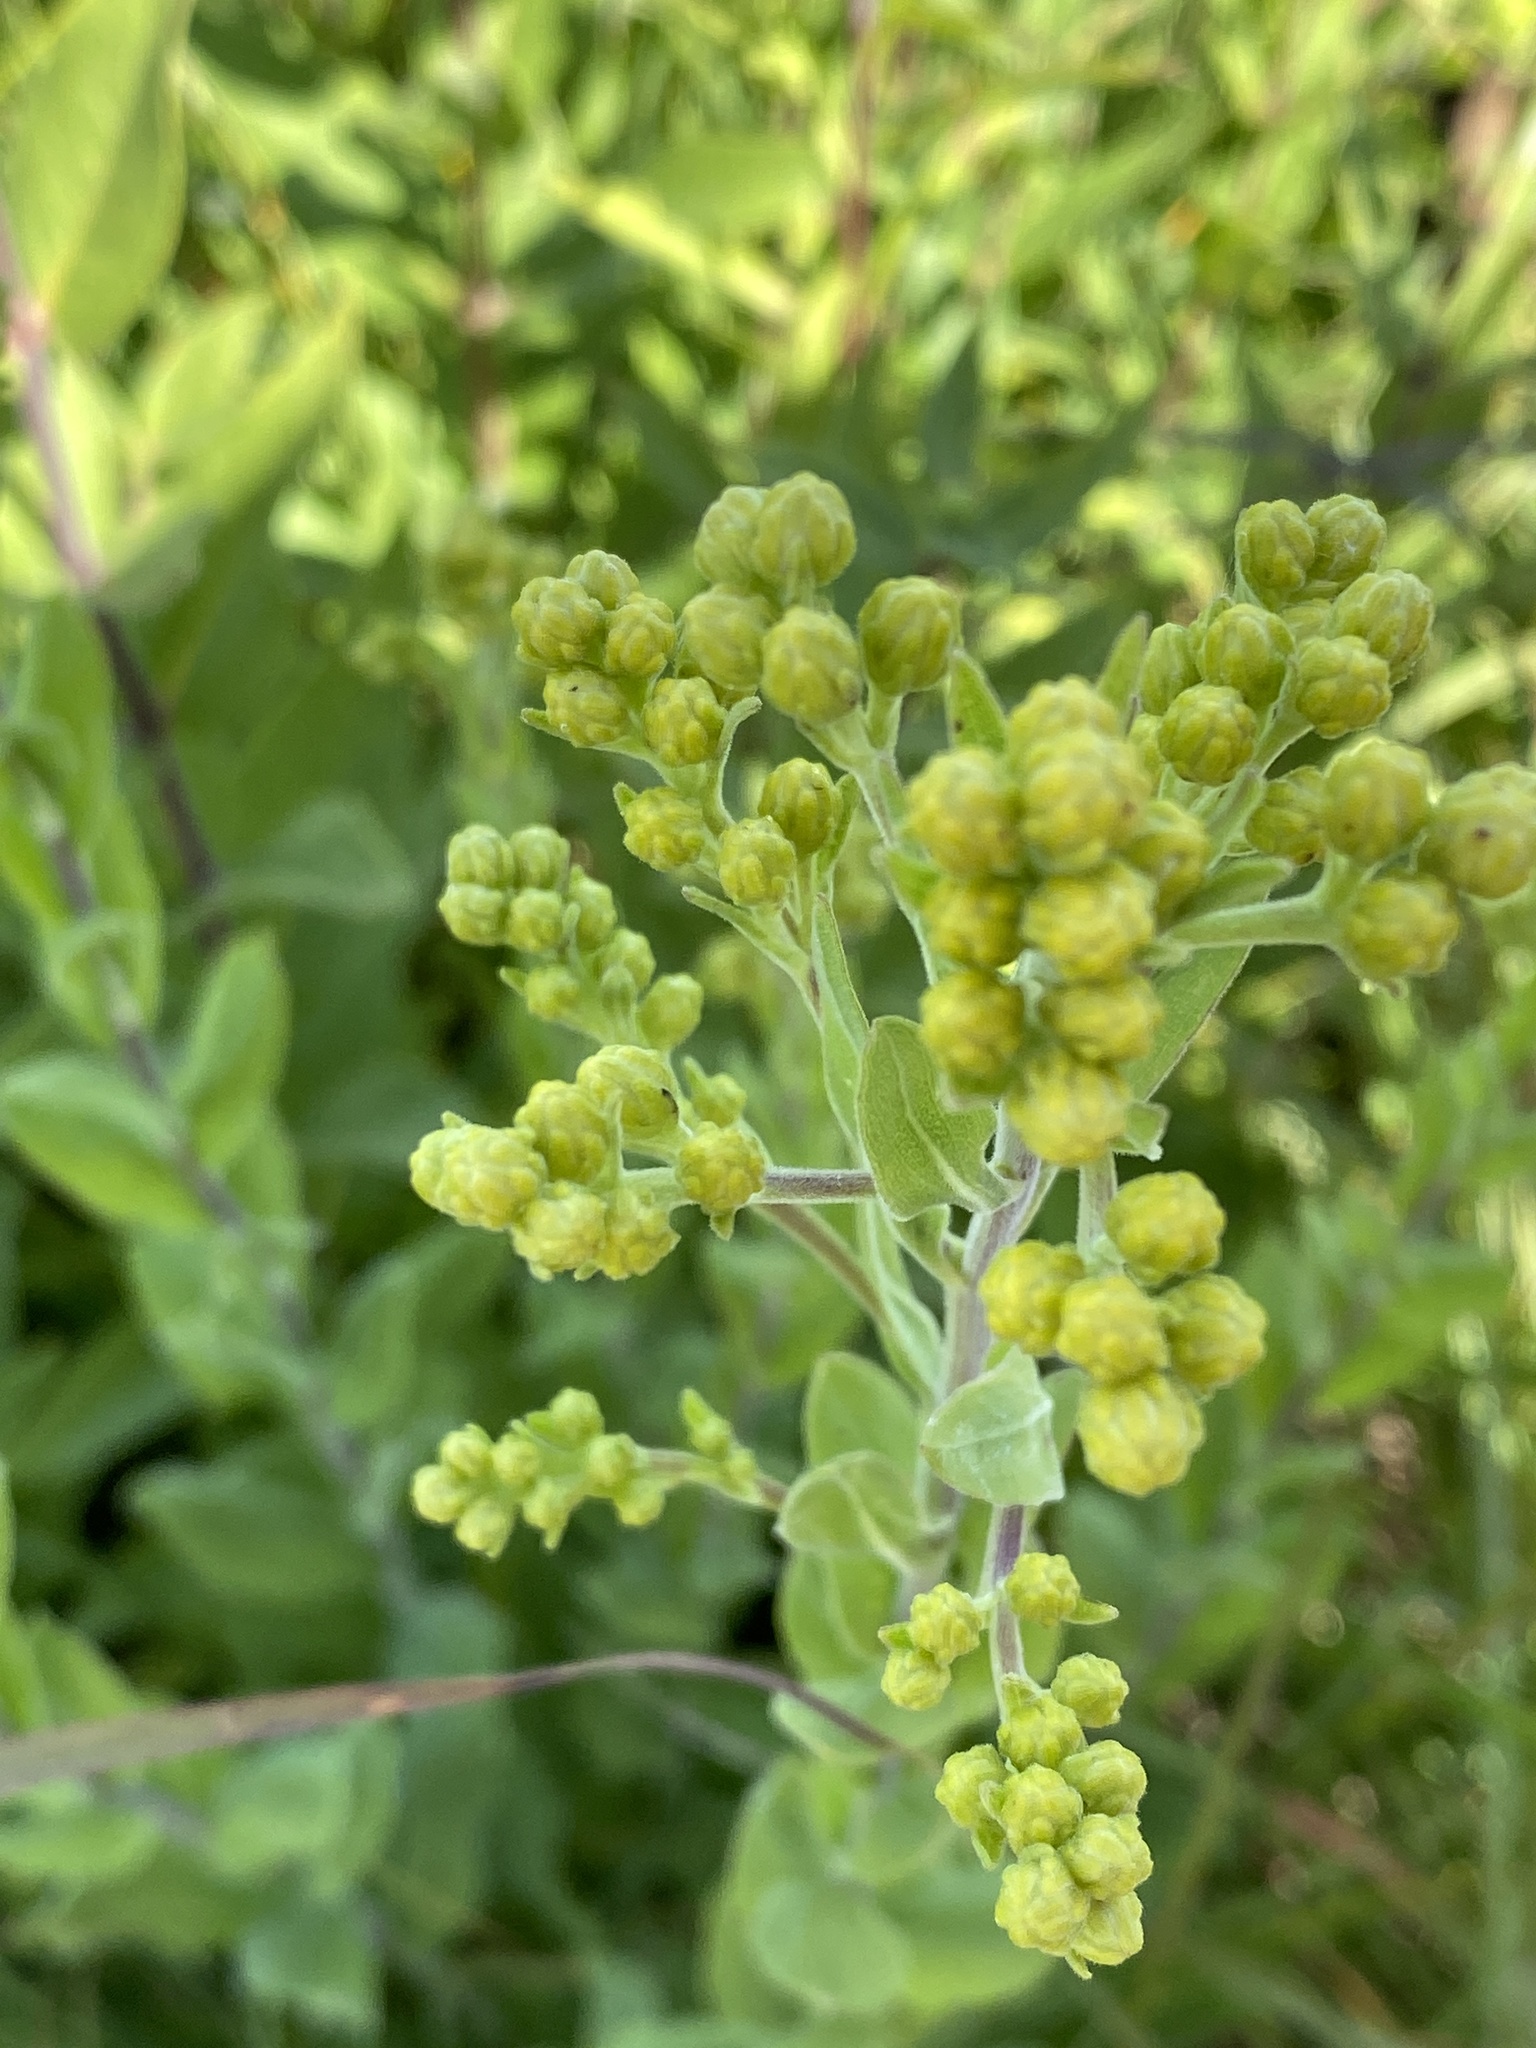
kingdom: Plantae
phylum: Tracheophyta
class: Magnoliopsida
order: Asterales
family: Asteraceae
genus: Solidago
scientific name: Solidago rigida
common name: Rigid goldenrod
